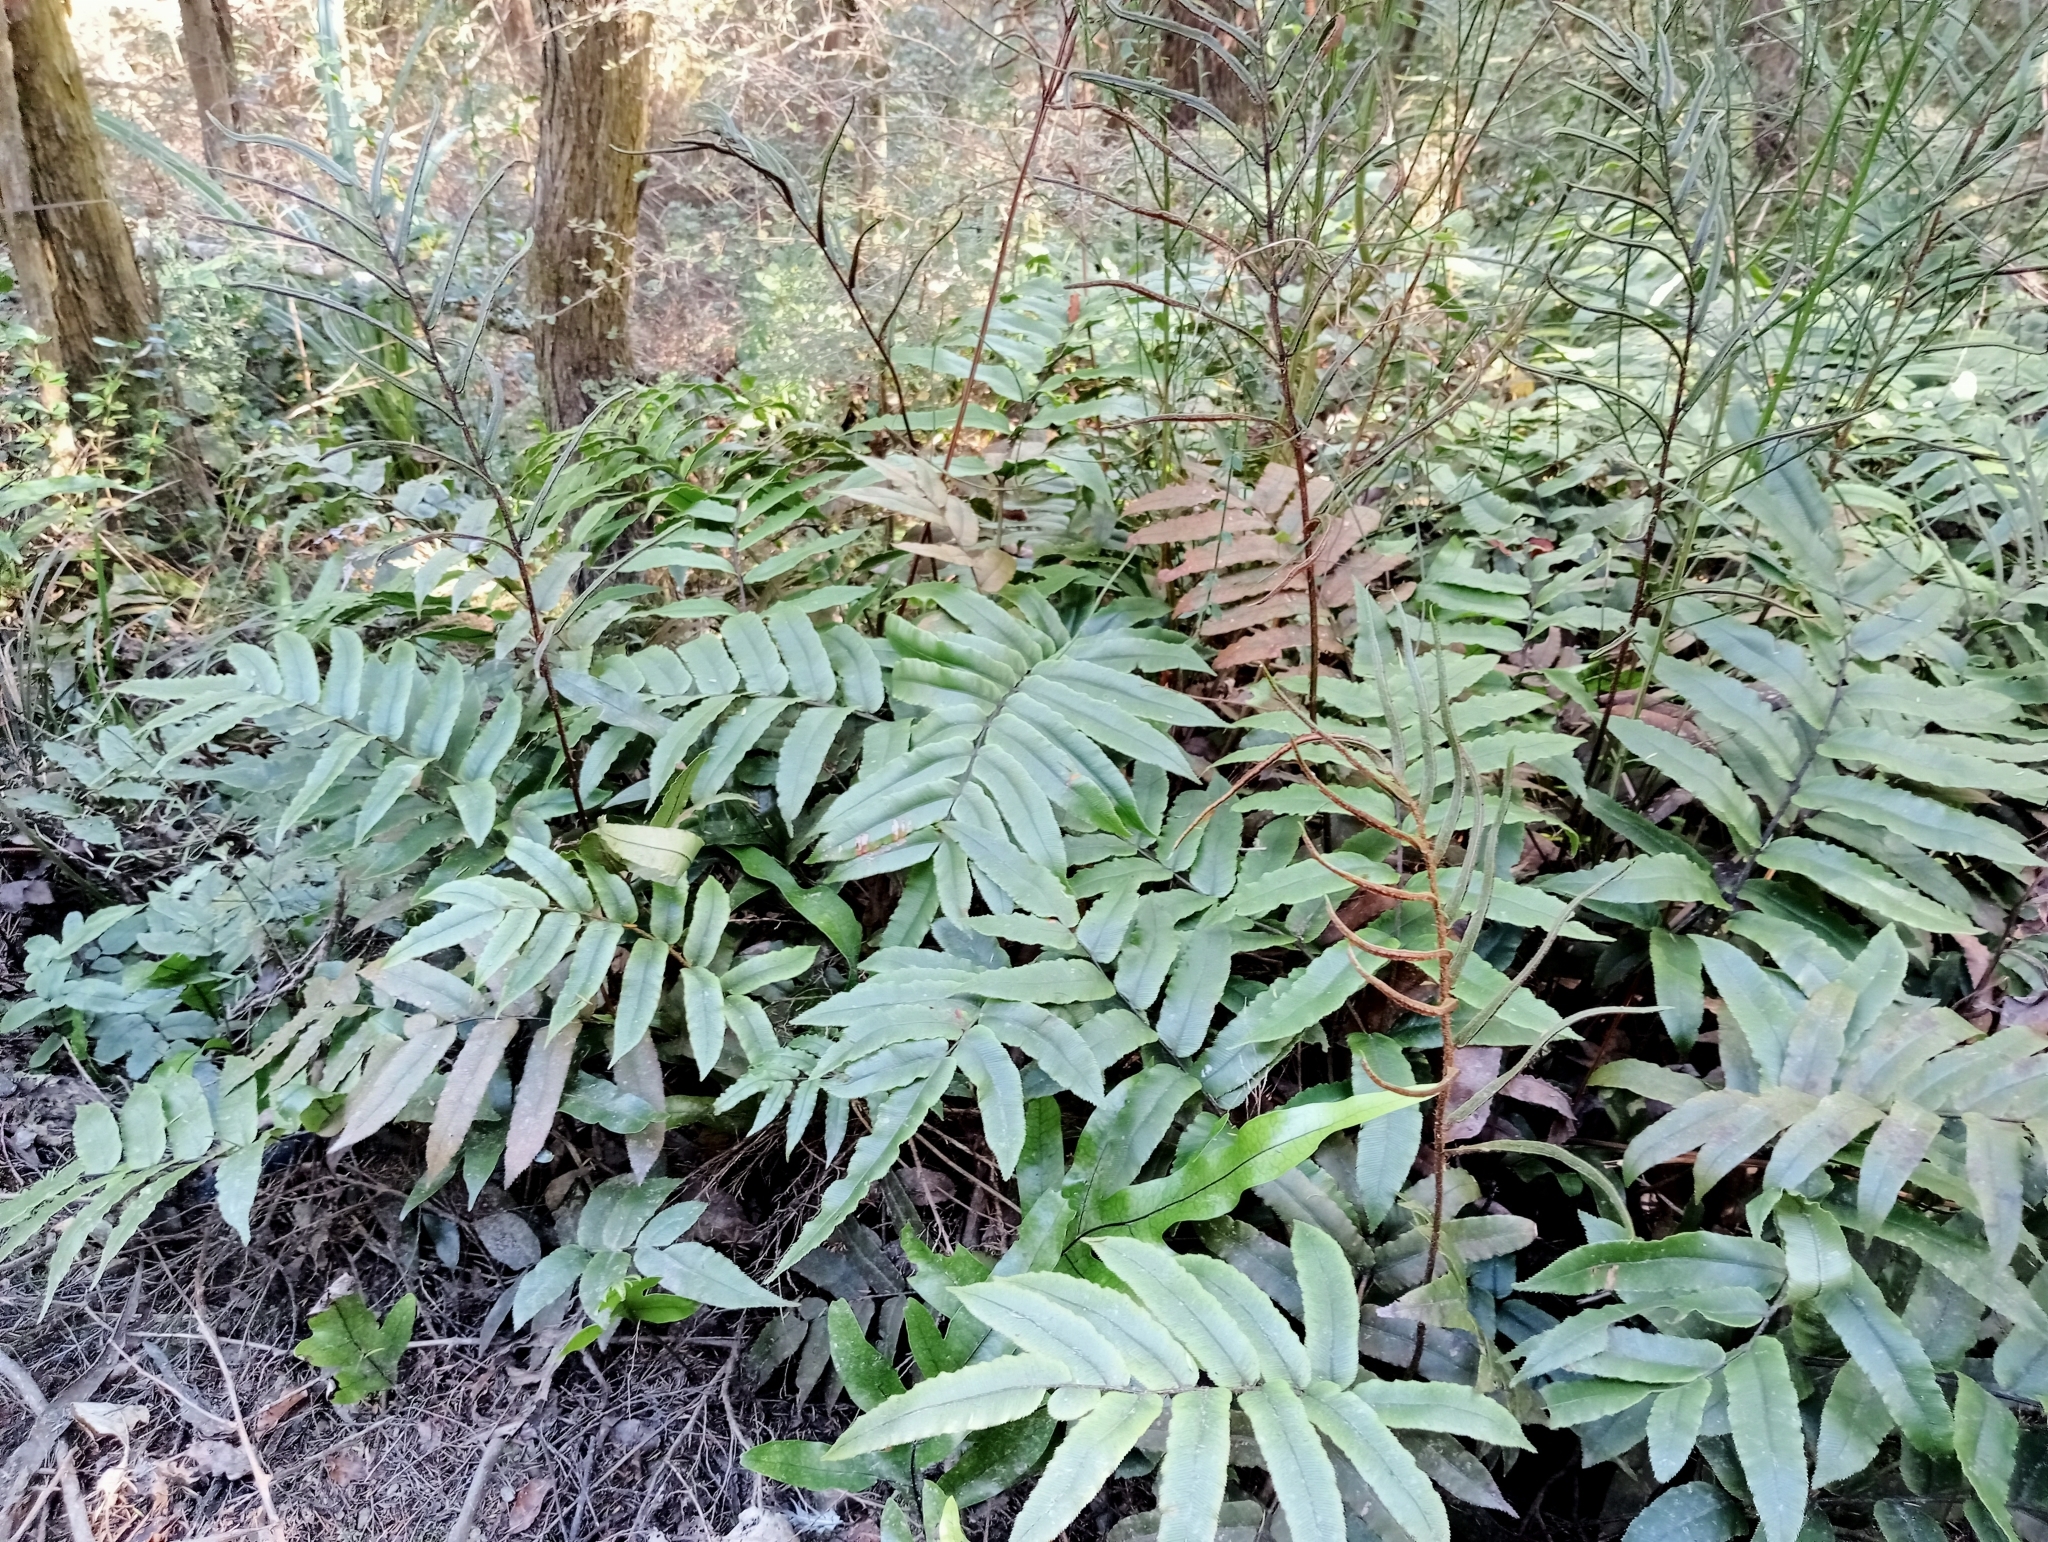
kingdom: Plantae
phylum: Tracheophyta
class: Polypodiopsida
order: Polypodiales
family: Blechnaceae
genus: Parablechnum
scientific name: Parablechnum procerum
